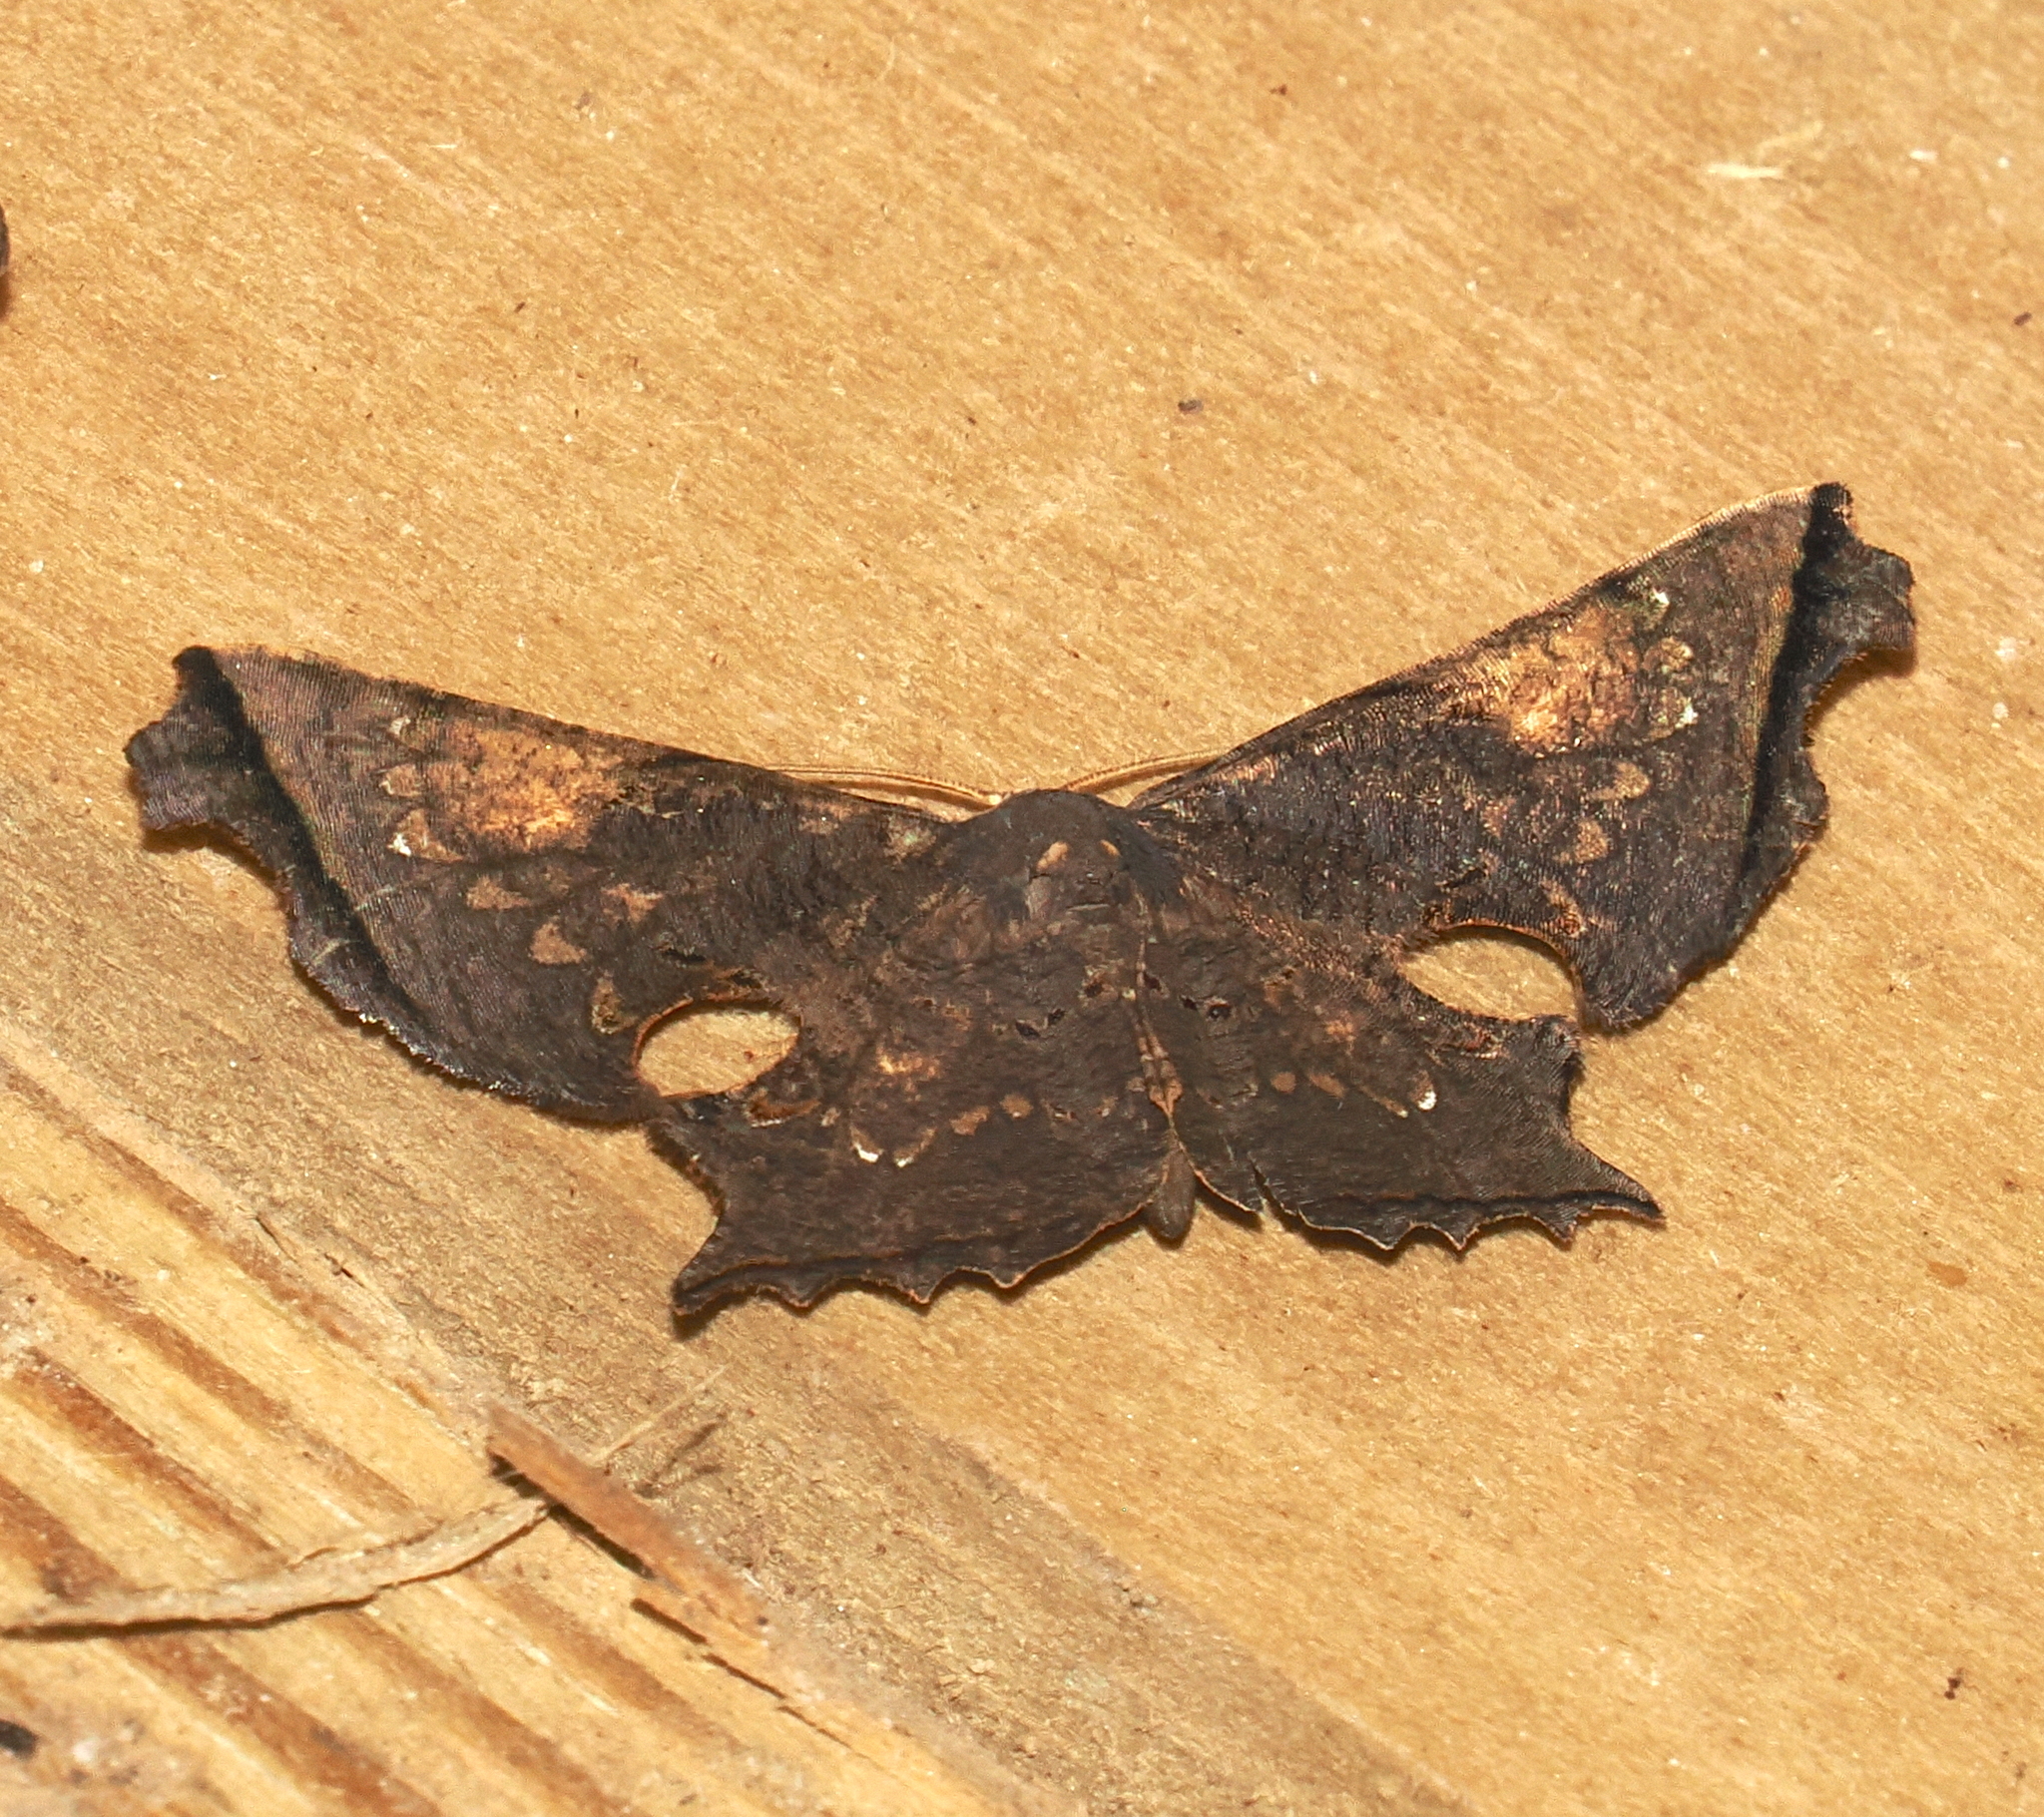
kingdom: Animalia
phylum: Arthropoda
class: Insecta
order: Lepidoptera
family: Uraniidae
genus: Crypsicoela
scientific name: Crypsicoela subocellata
